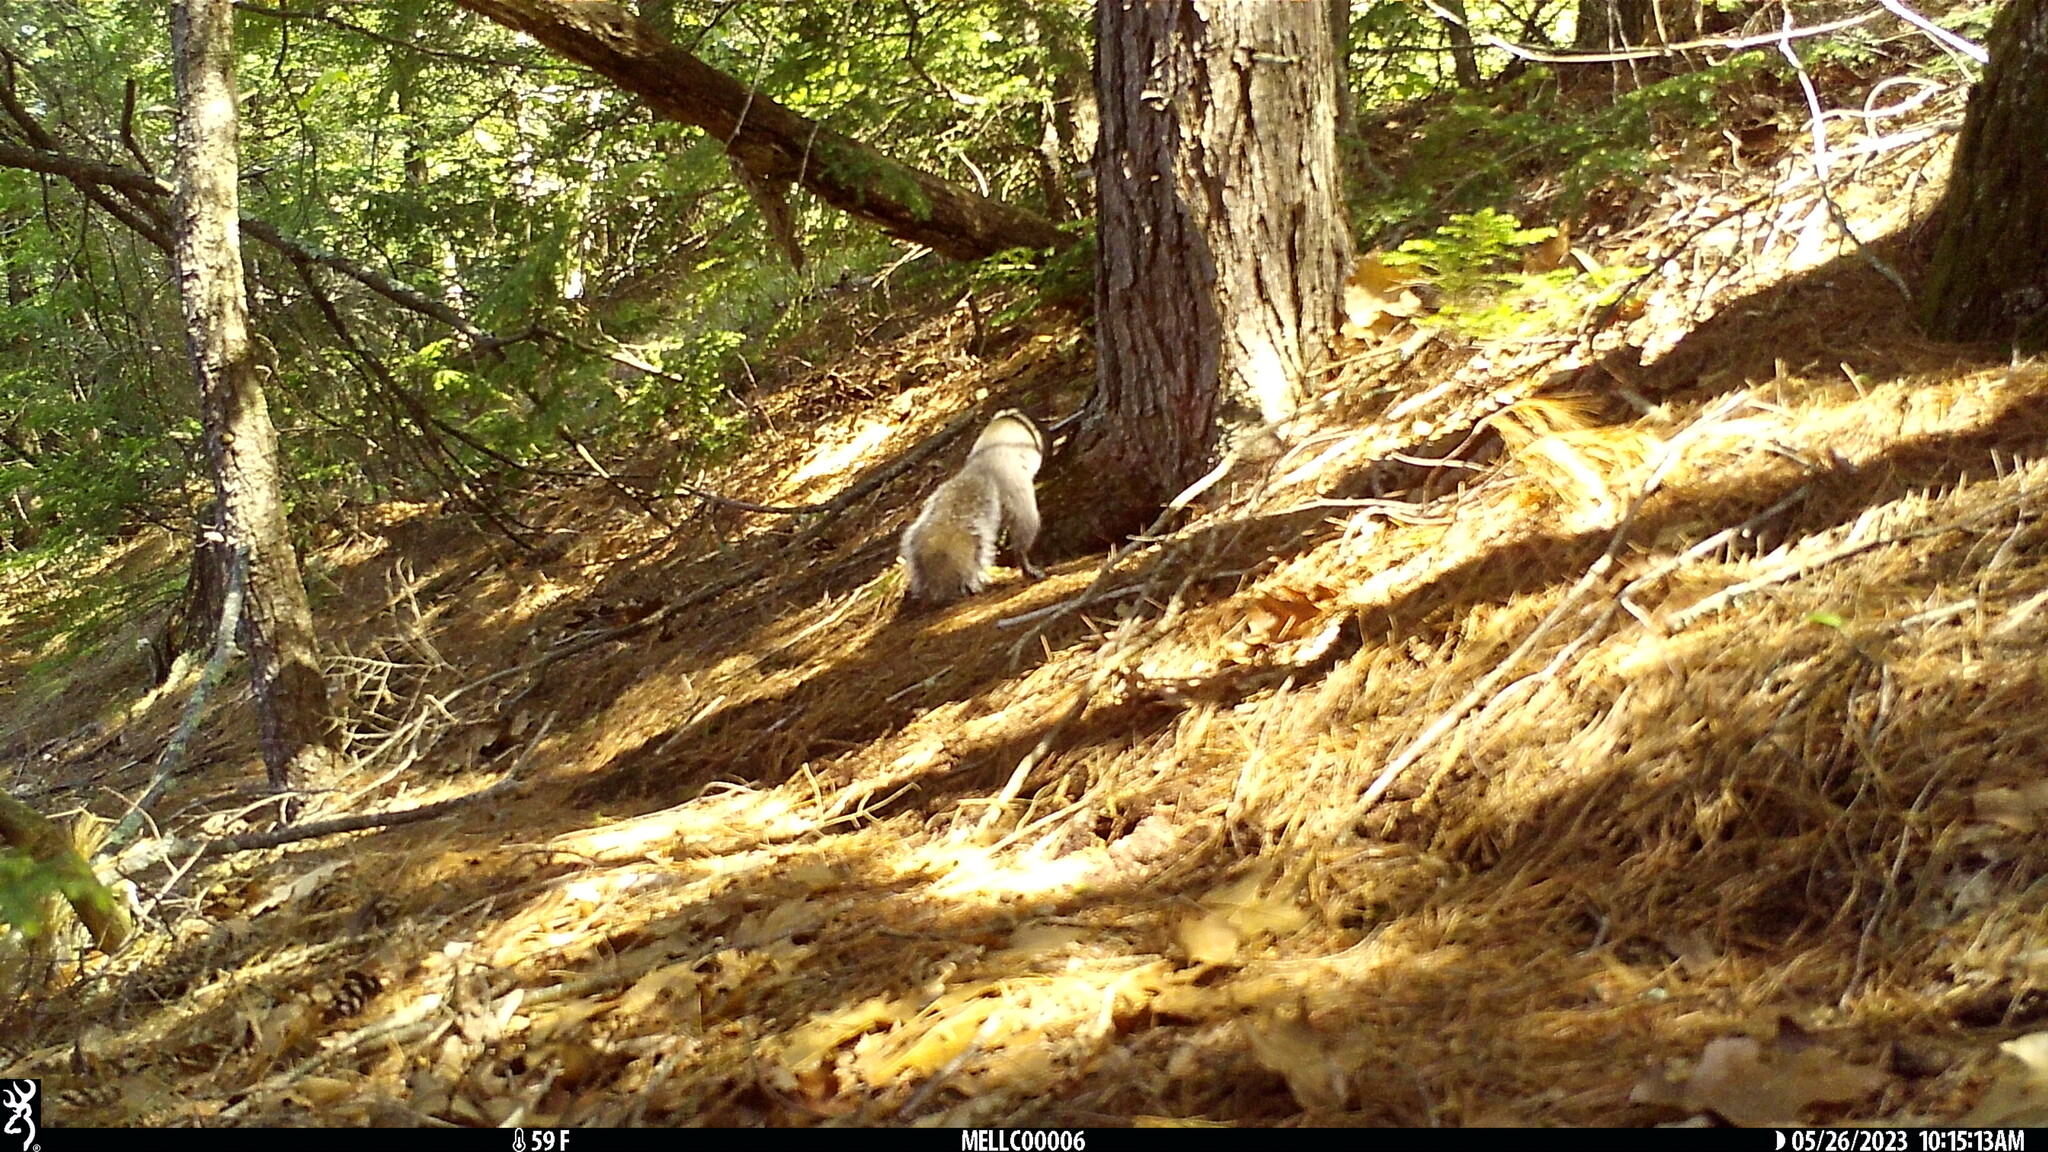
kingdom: Animalia
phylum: Chordata
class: Mammalia
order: Rodentia
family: Sciuridae
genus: Sciurus
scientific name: Sciurus carolinensis
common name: Eastern gray squirrel
